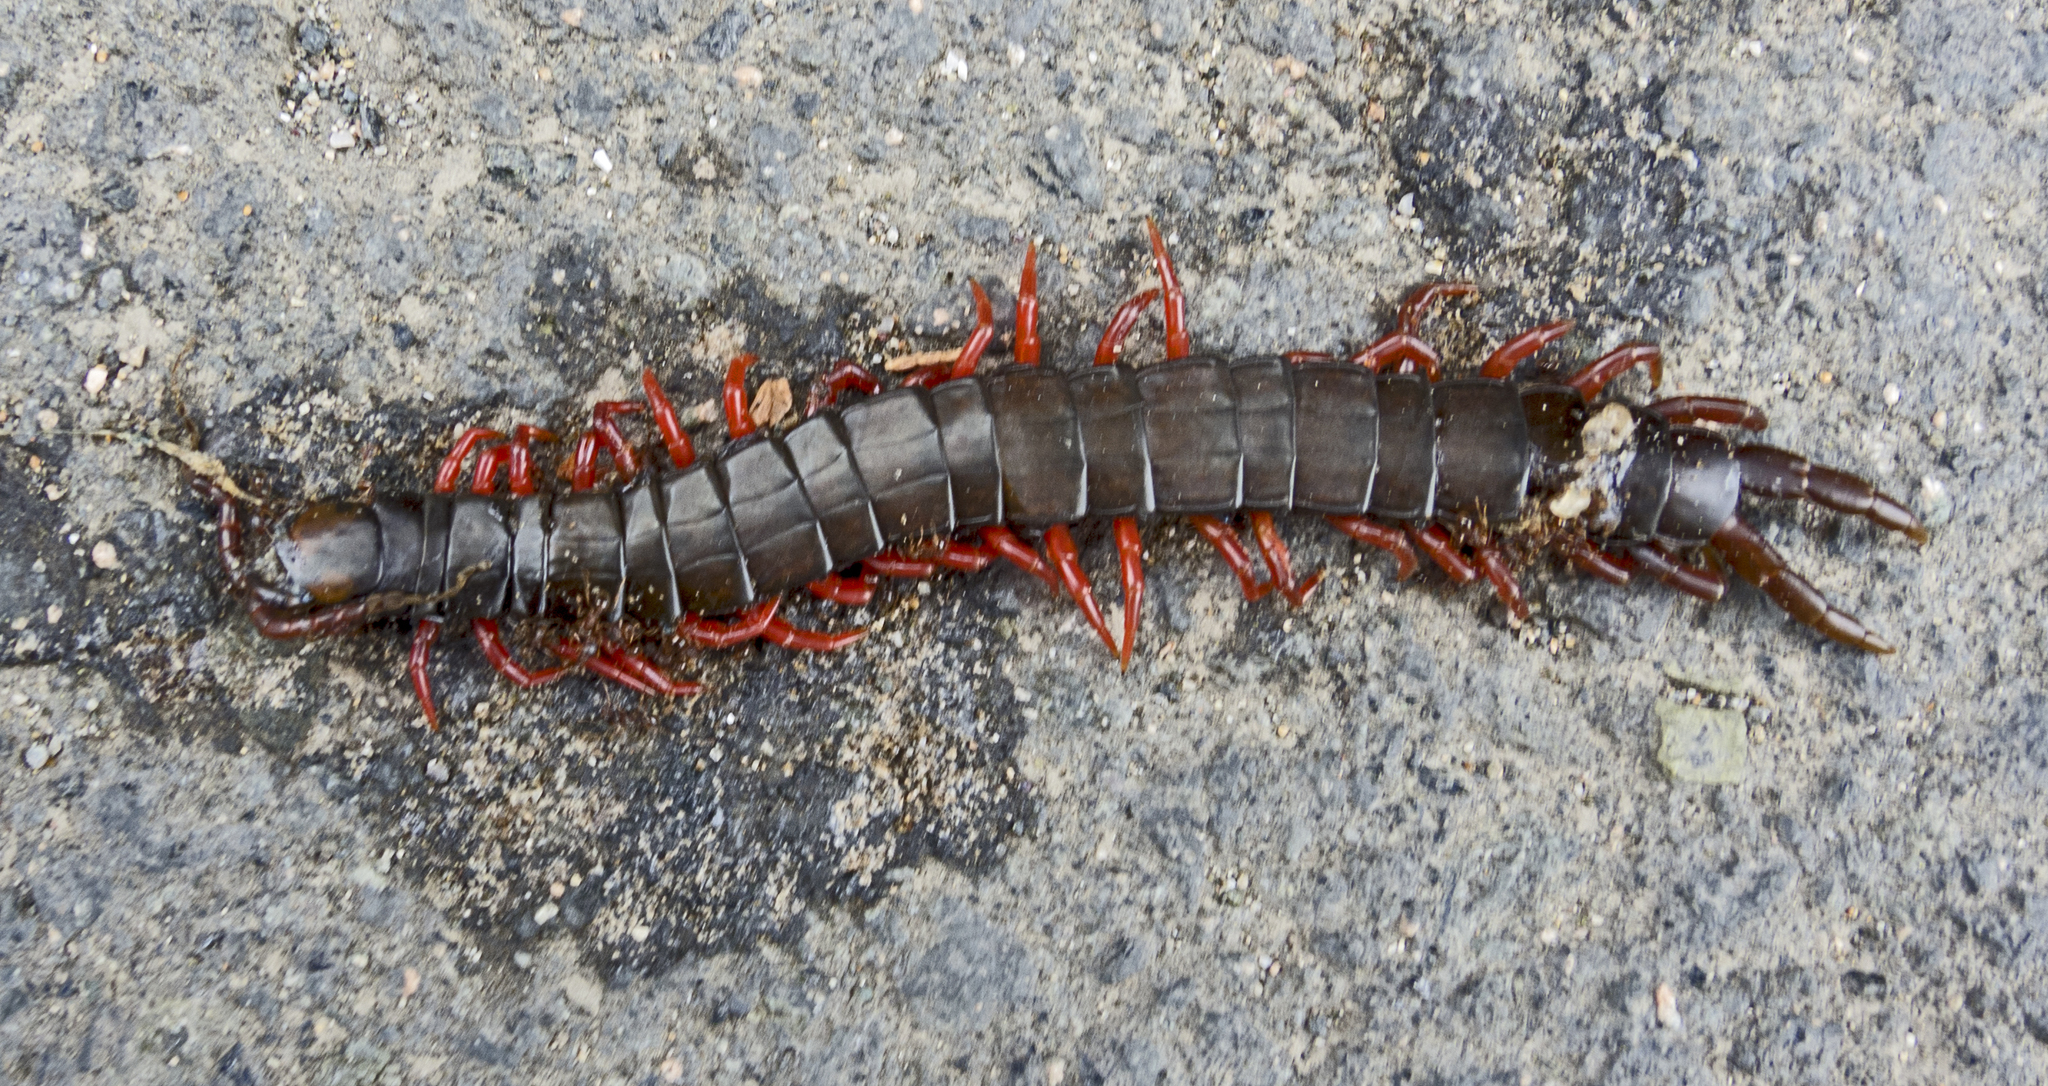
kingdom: Animalia
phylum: Arthropoda
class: Chilopoda
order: Scolopendromorpha
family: Scolopendridae
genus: Scolopendra
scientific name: Scolopendra cingulata
